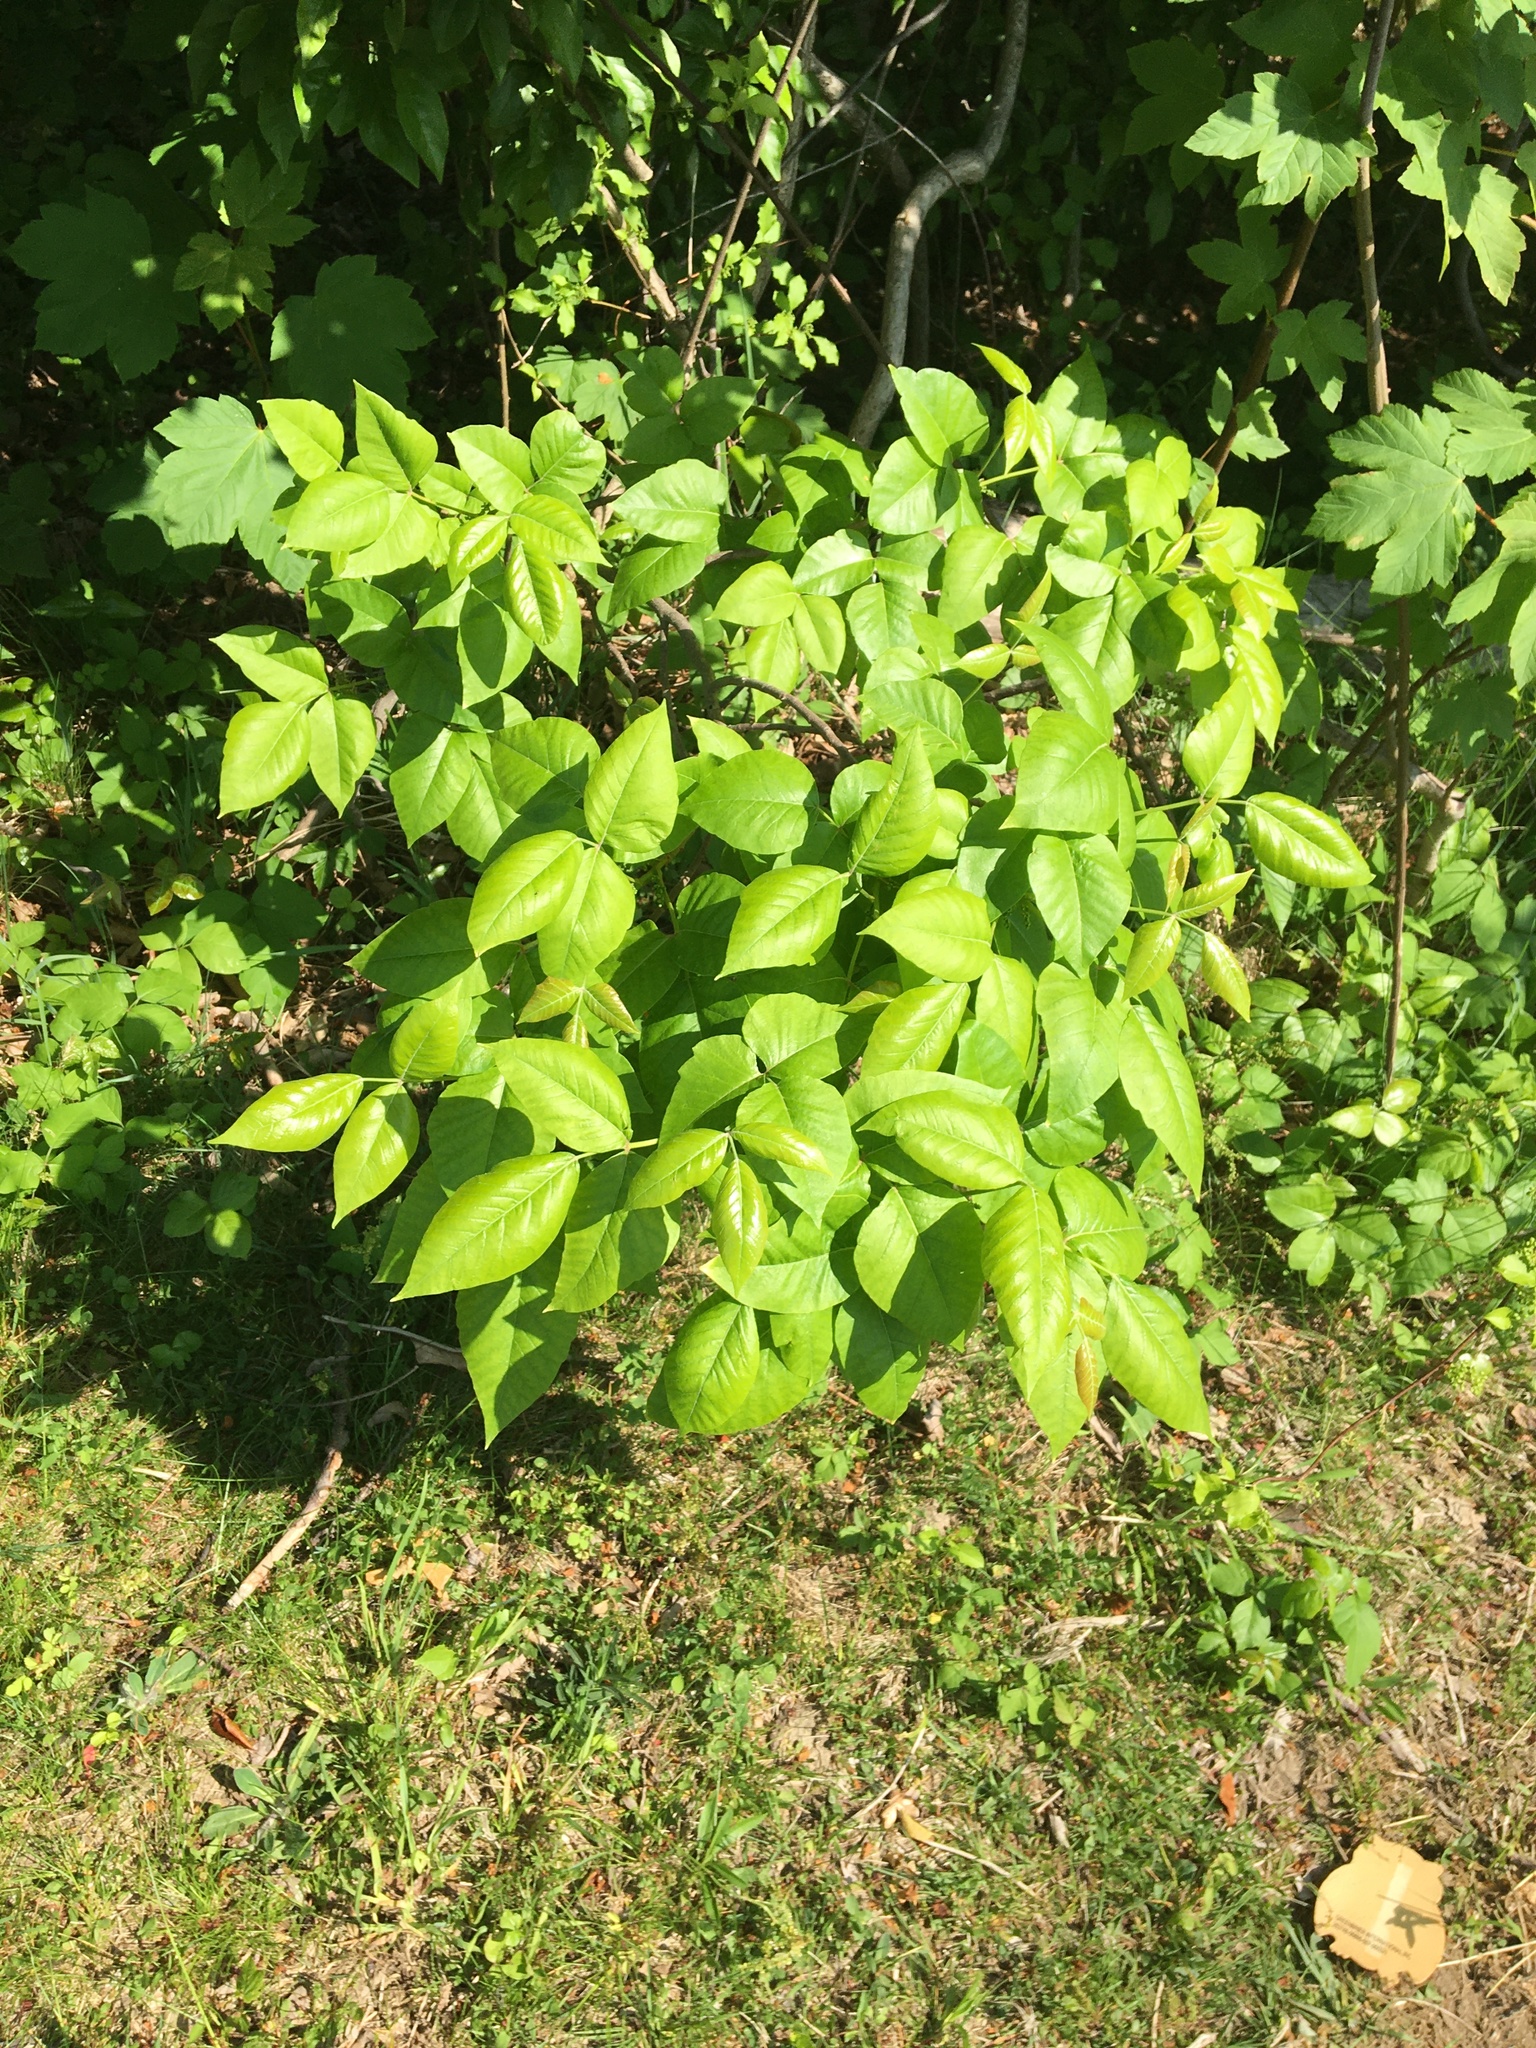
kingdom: Plantae
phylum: Tracheophyta
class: Magnoliopsida
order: Sapindales
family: Sapindaceae
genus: Acer
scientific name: Acer pseudoplatanus
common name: Sycamore
